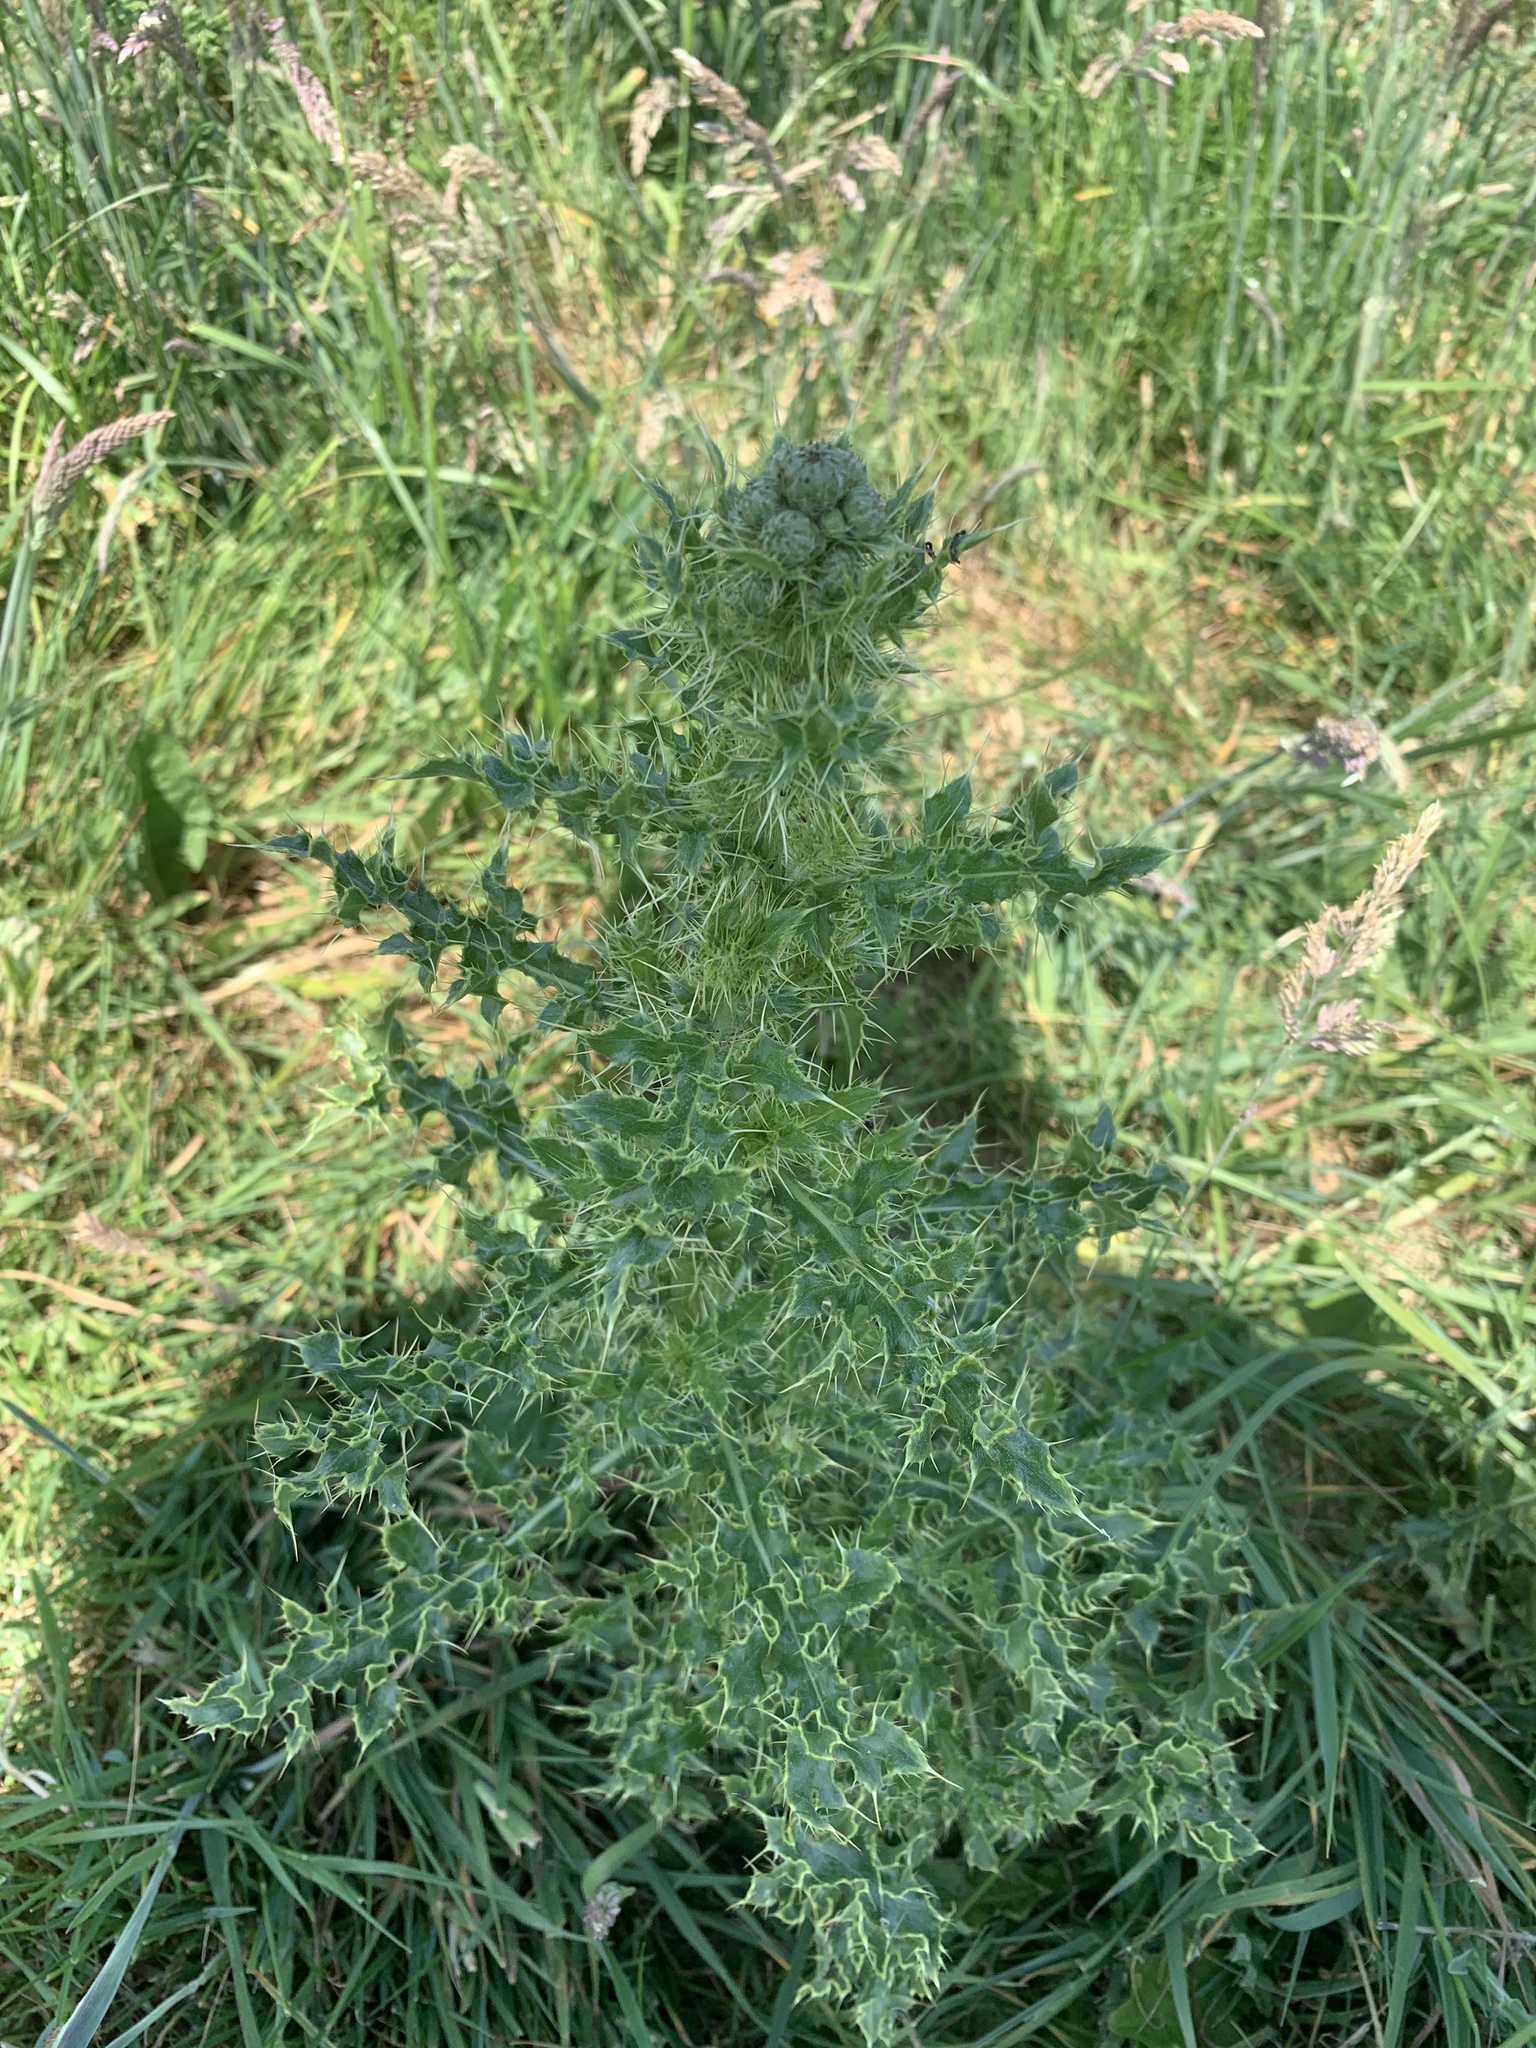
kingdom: Plantae
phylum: Tracheophyta
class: Magnoliopsida
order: Asterales
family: Asteraceae
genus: Cirsium
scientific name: Cirsium arvense
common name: Creeping thistle
